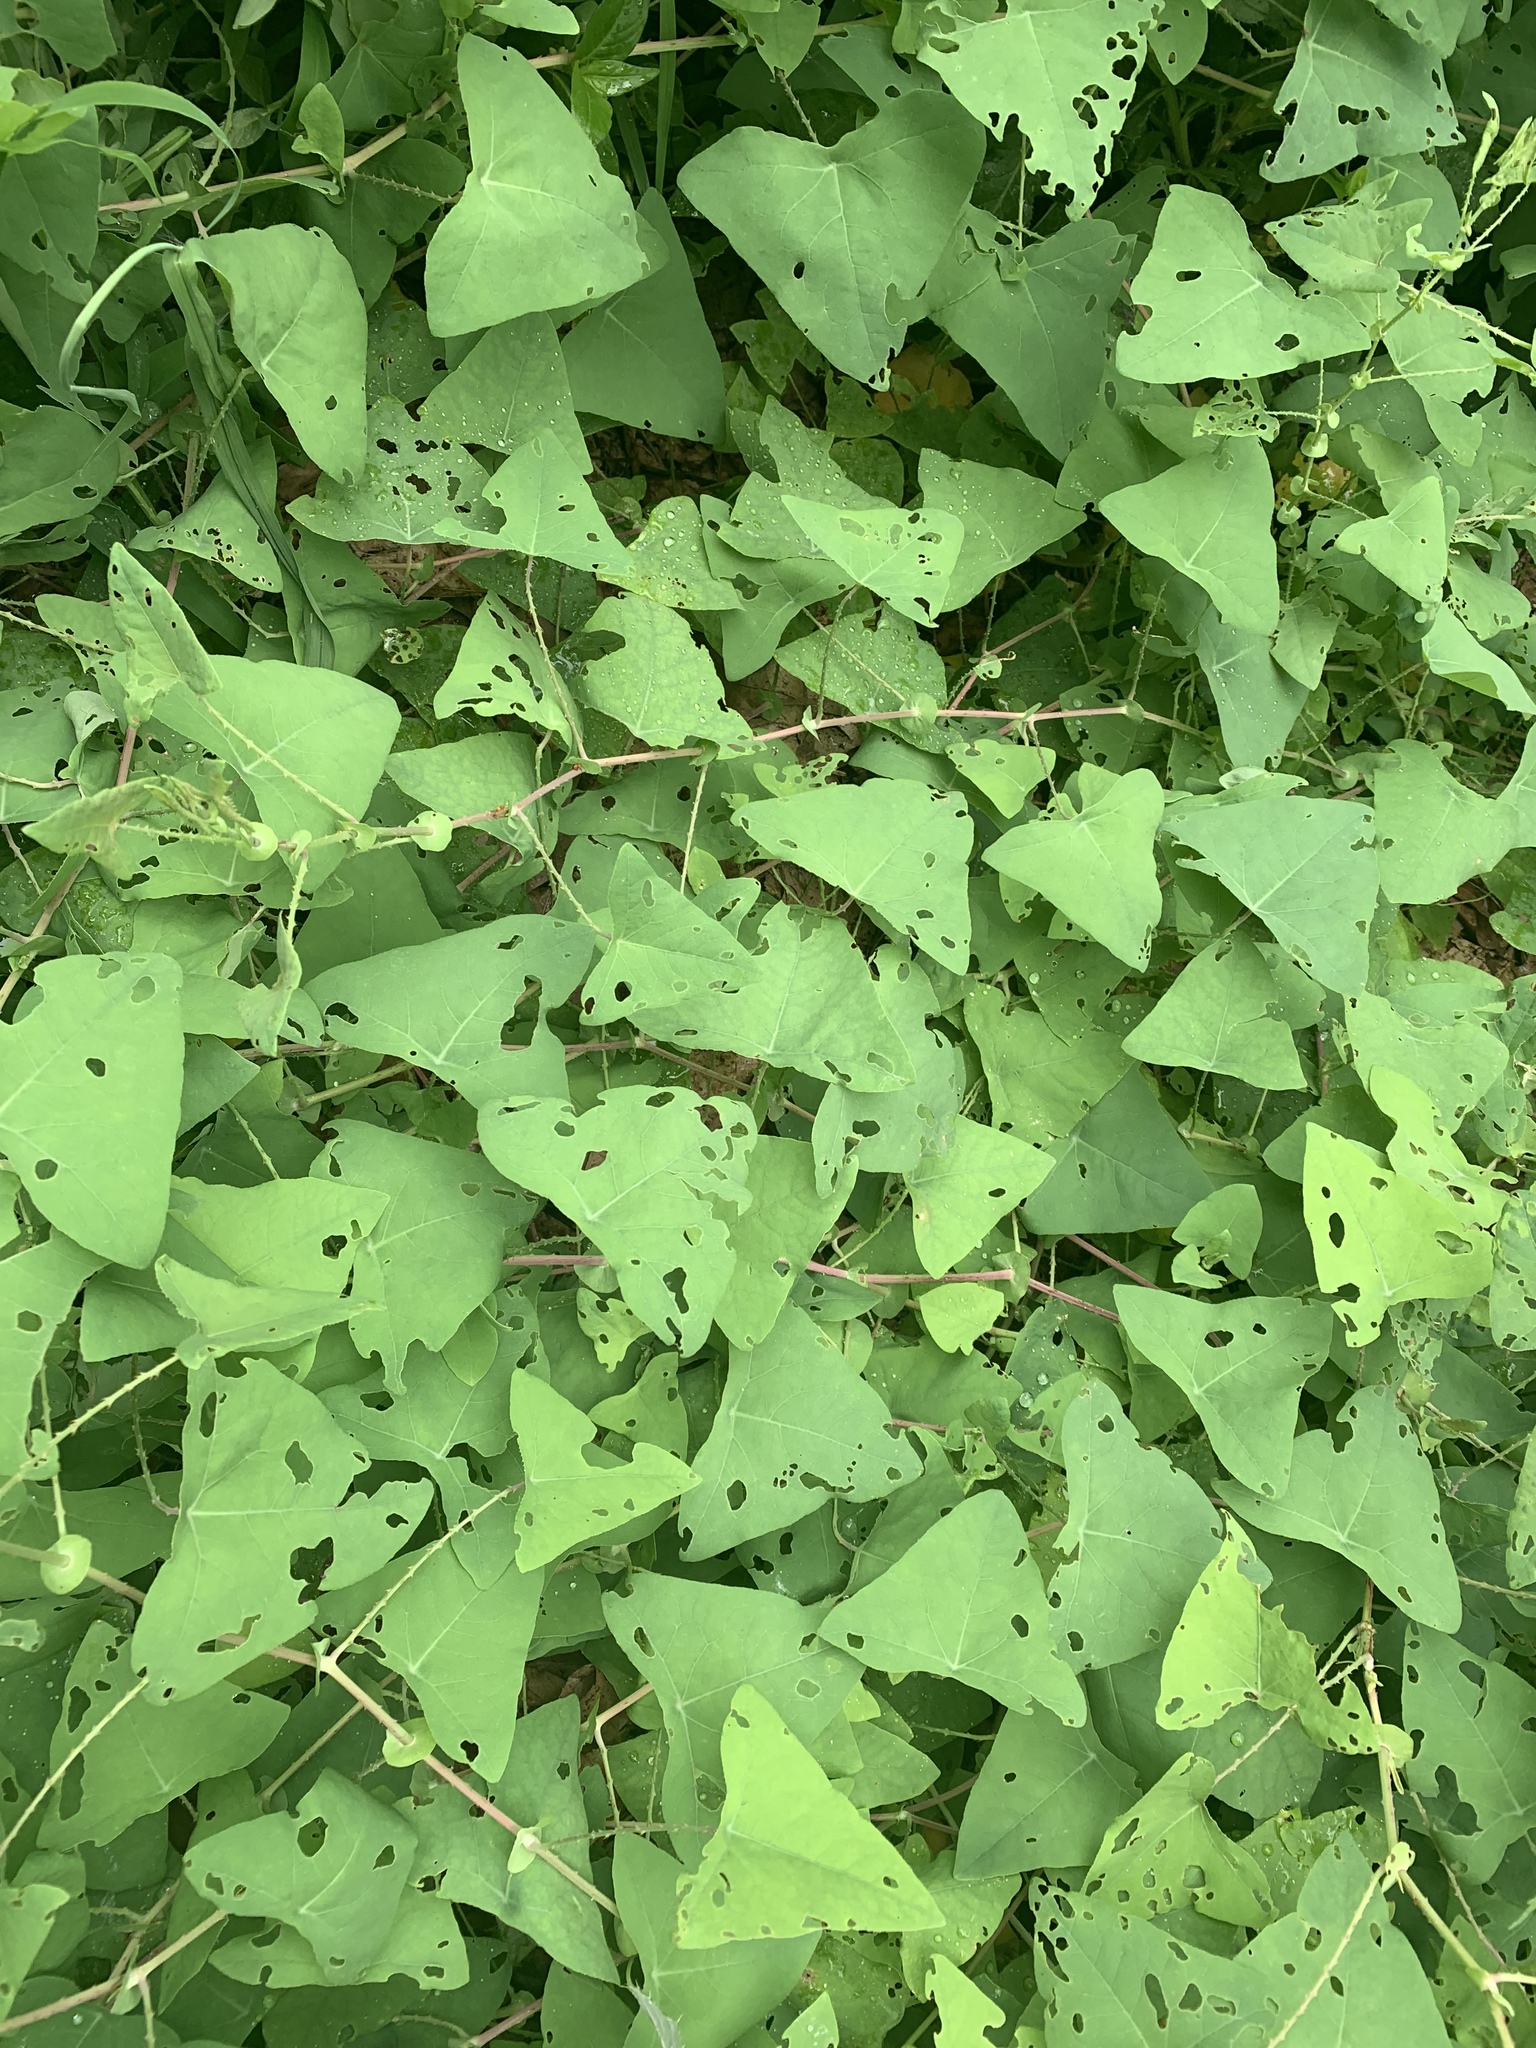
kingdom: Plantae
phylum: Tracheophyta
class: Magnoliopsida
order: Caryophyllales
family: Polygonaceae
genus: Persicaria
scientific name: Persicaria perfoliata
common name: Asiatic tearthumb
